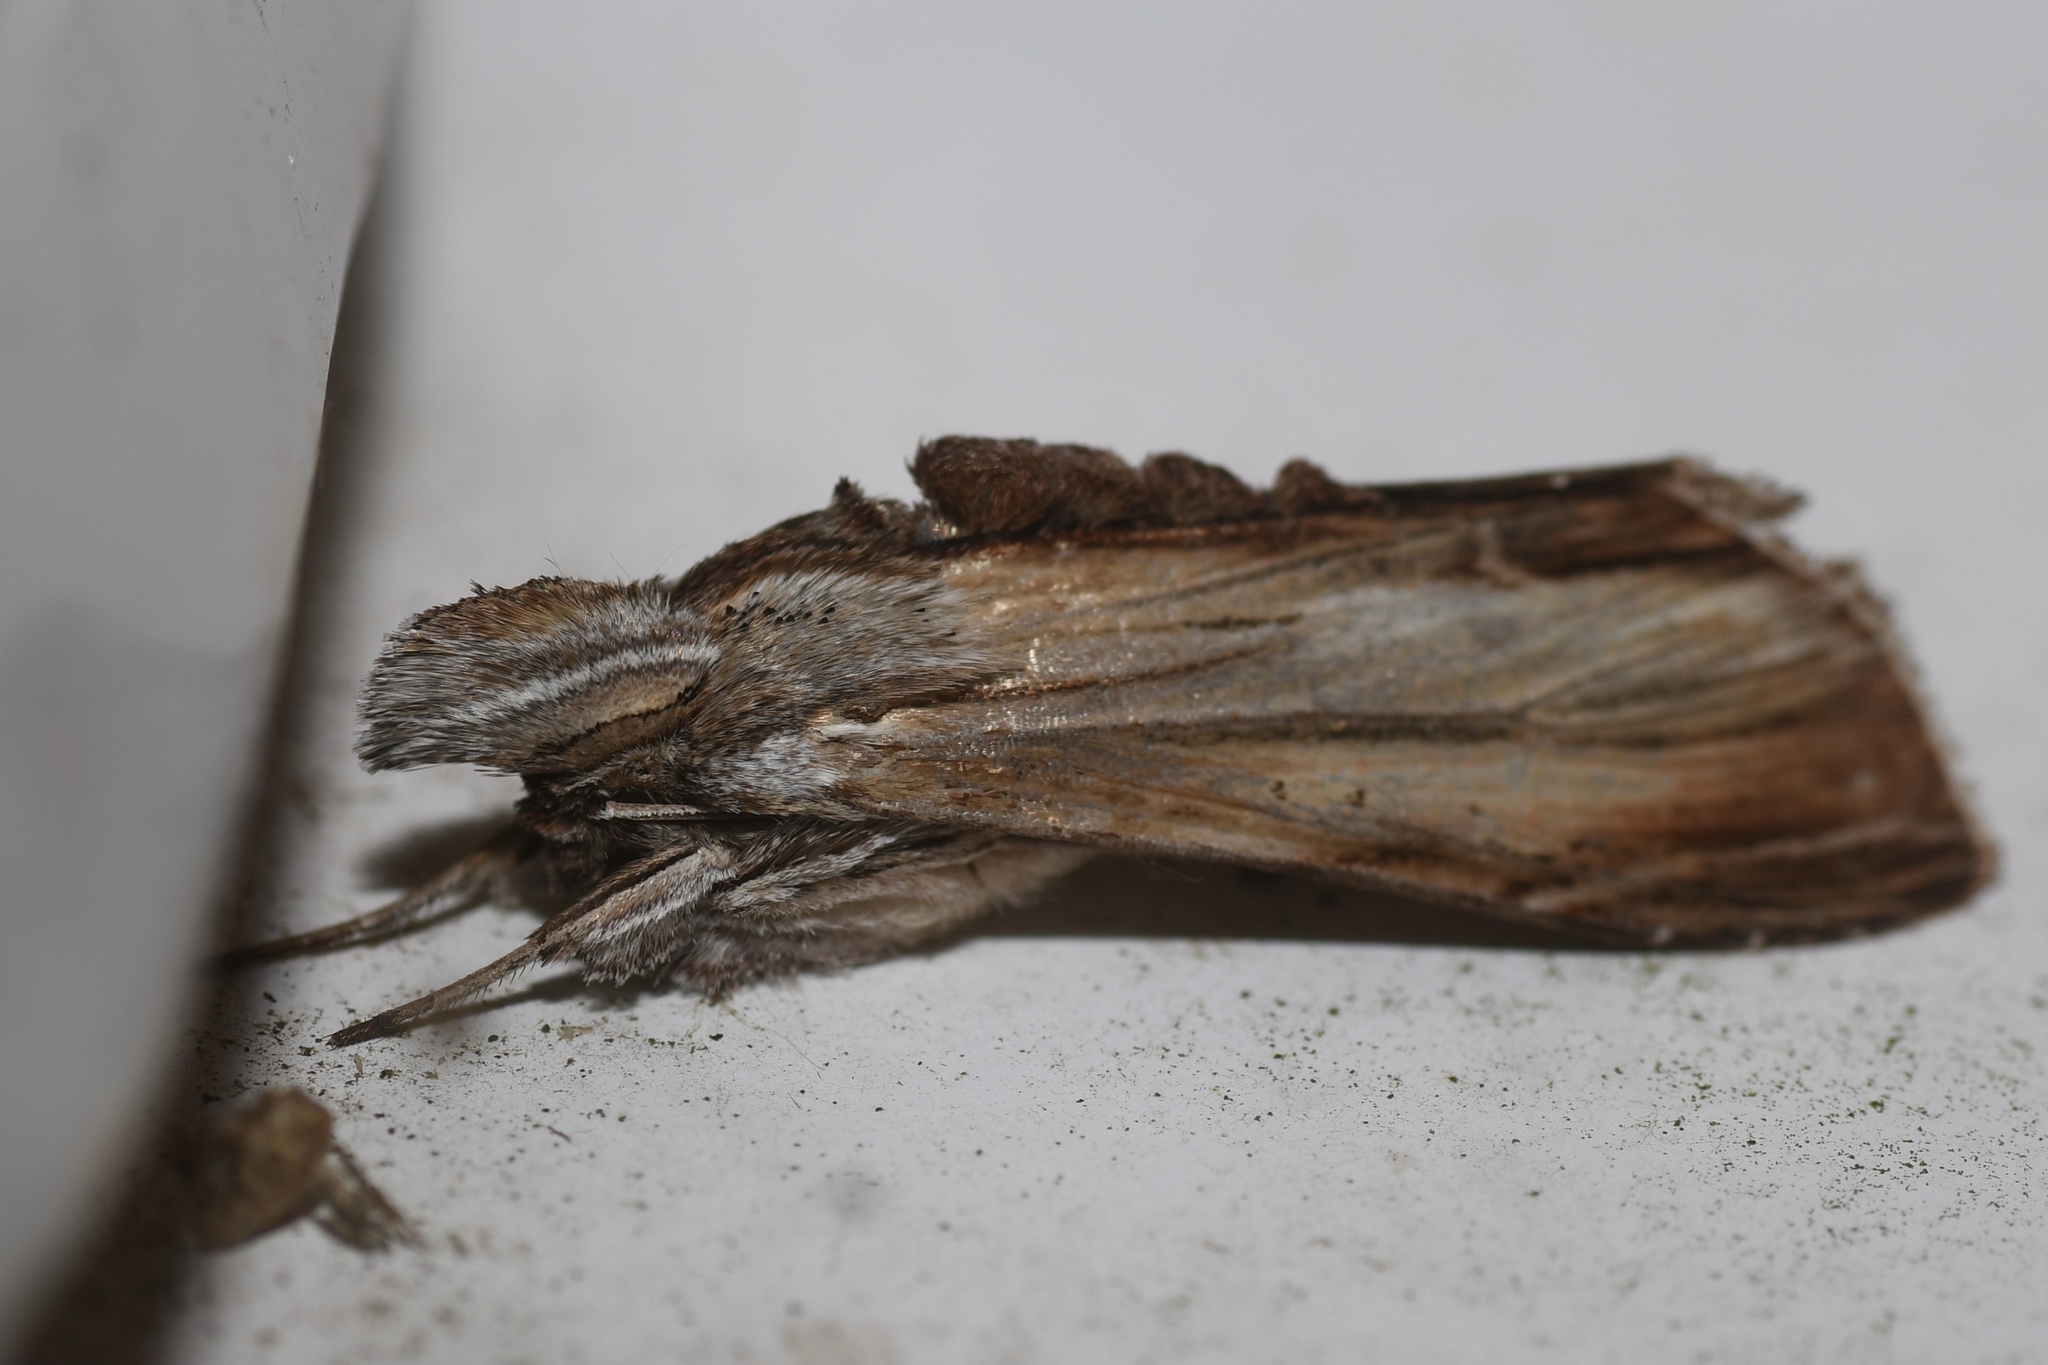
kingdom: Animalia
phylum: Arthropoda
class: Insecta
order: Lepidoptera
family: Noctuidae
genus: Cucullia
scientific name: Cucullia convexipennis
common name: Brown-hooded owlet
